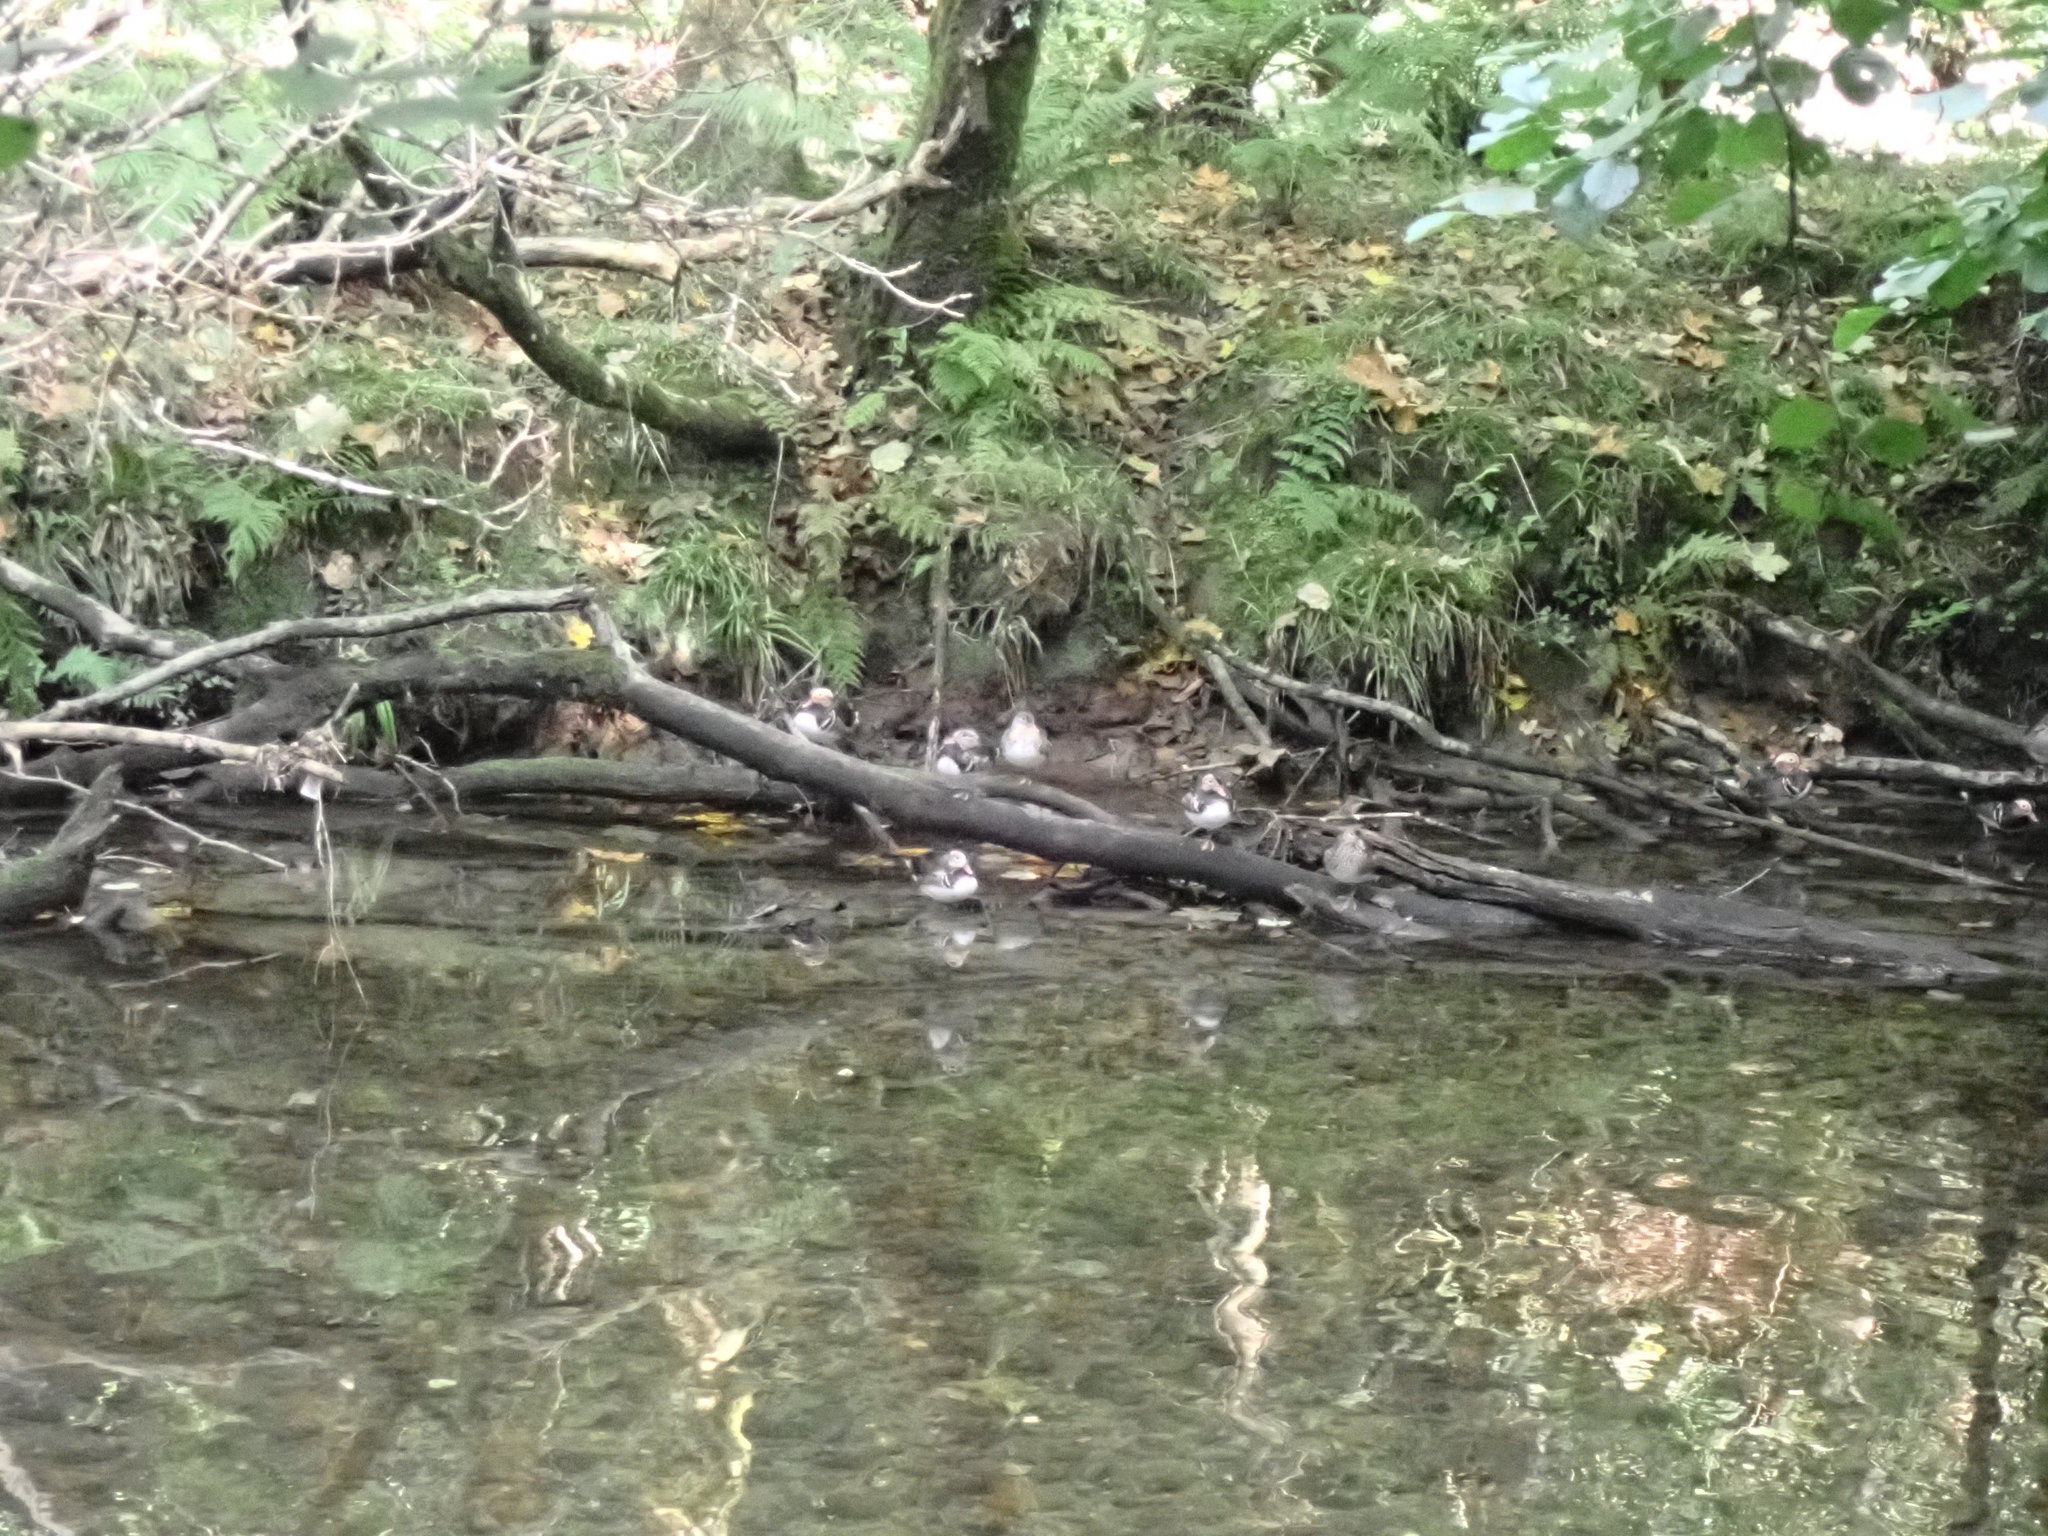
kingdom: Animalia
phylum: Chordata
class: Aves
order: Anseriformes
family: Anatidae
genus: Aix
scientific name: Aix galericulata
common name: Mandarin duck
